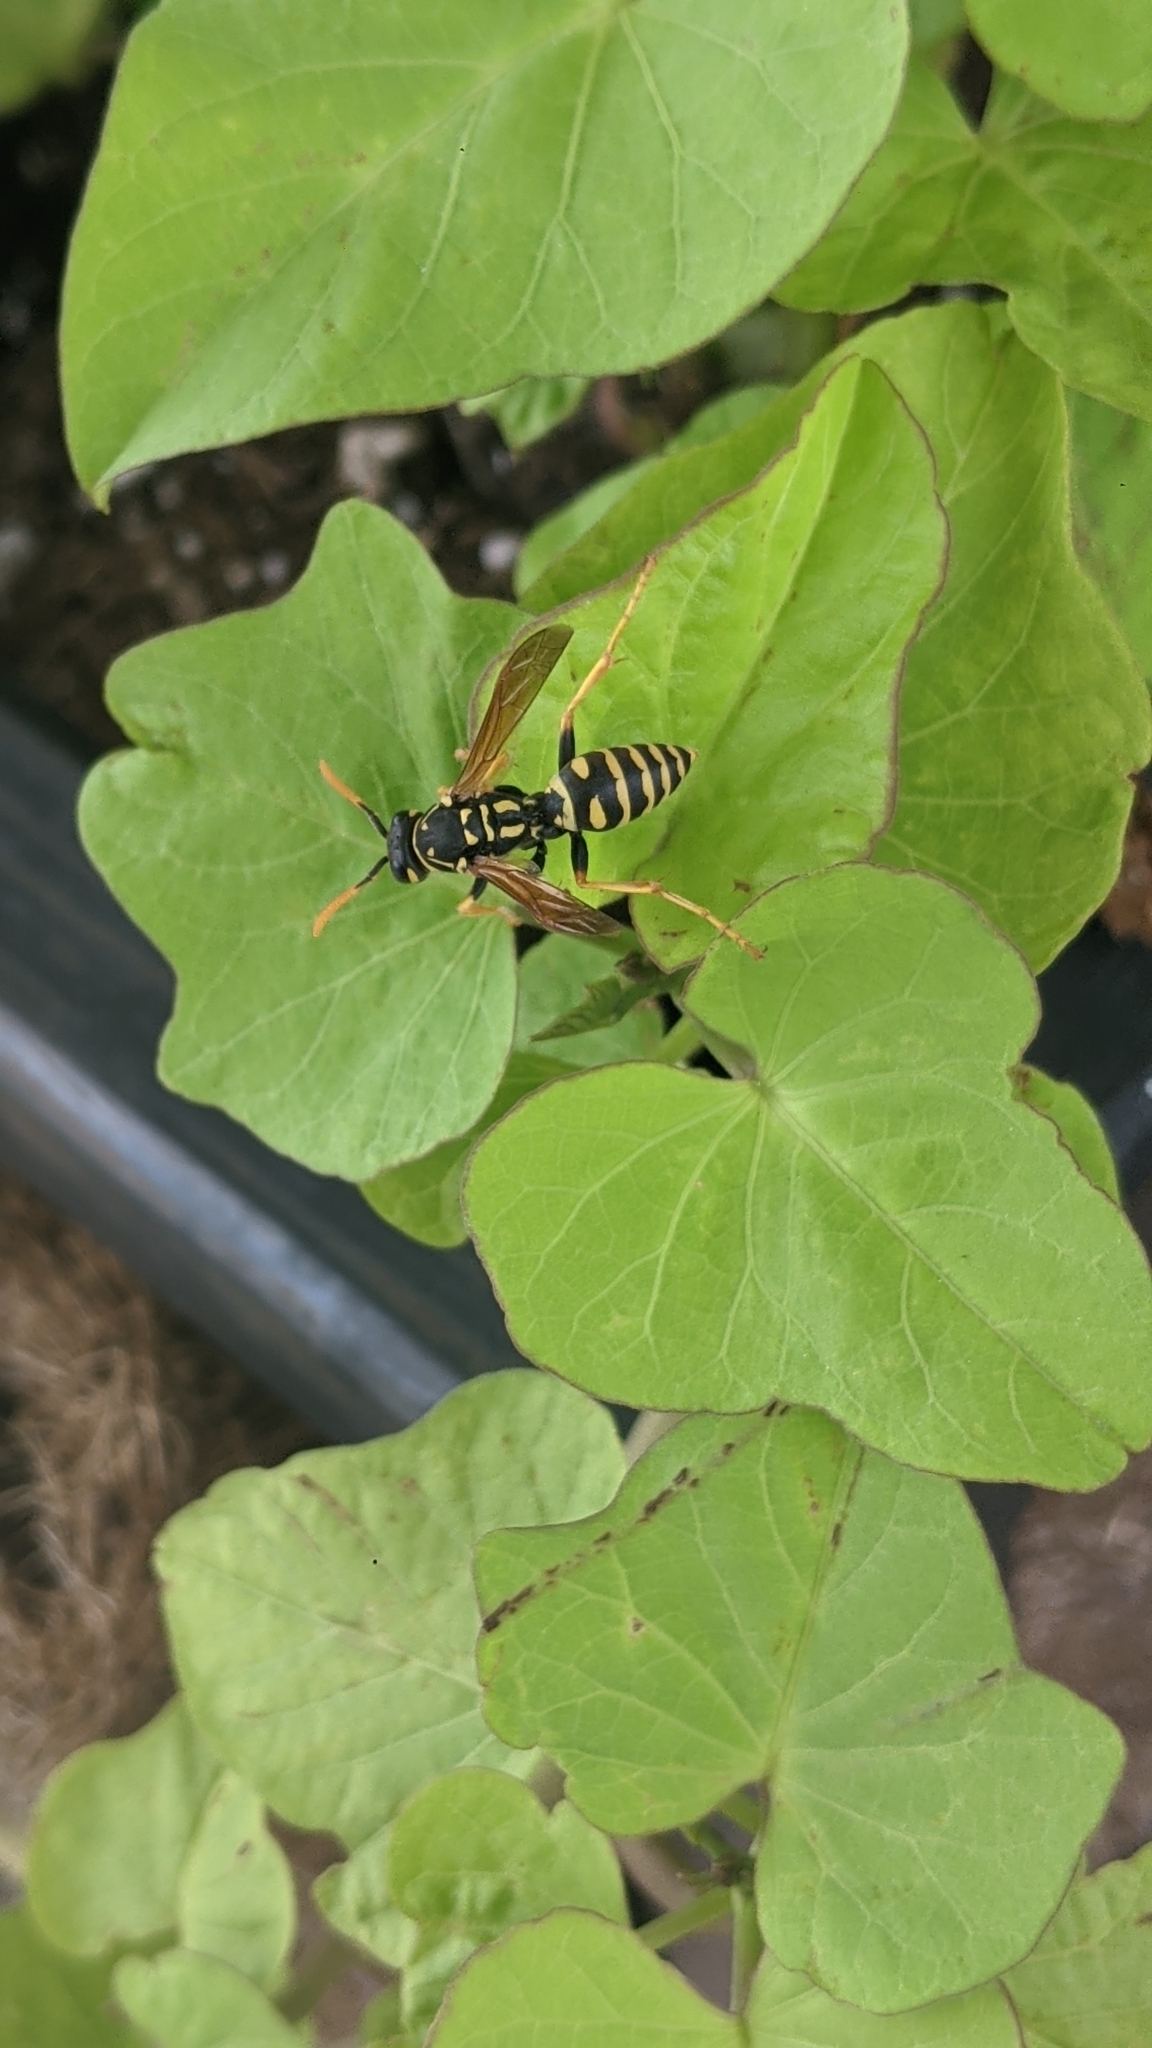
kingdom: Animalia
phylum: Arthropoda
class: Insecta
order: Hymenoptera
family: Eumenidae
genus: Polistes
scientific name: Polistes dominula
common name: Paper wasp
